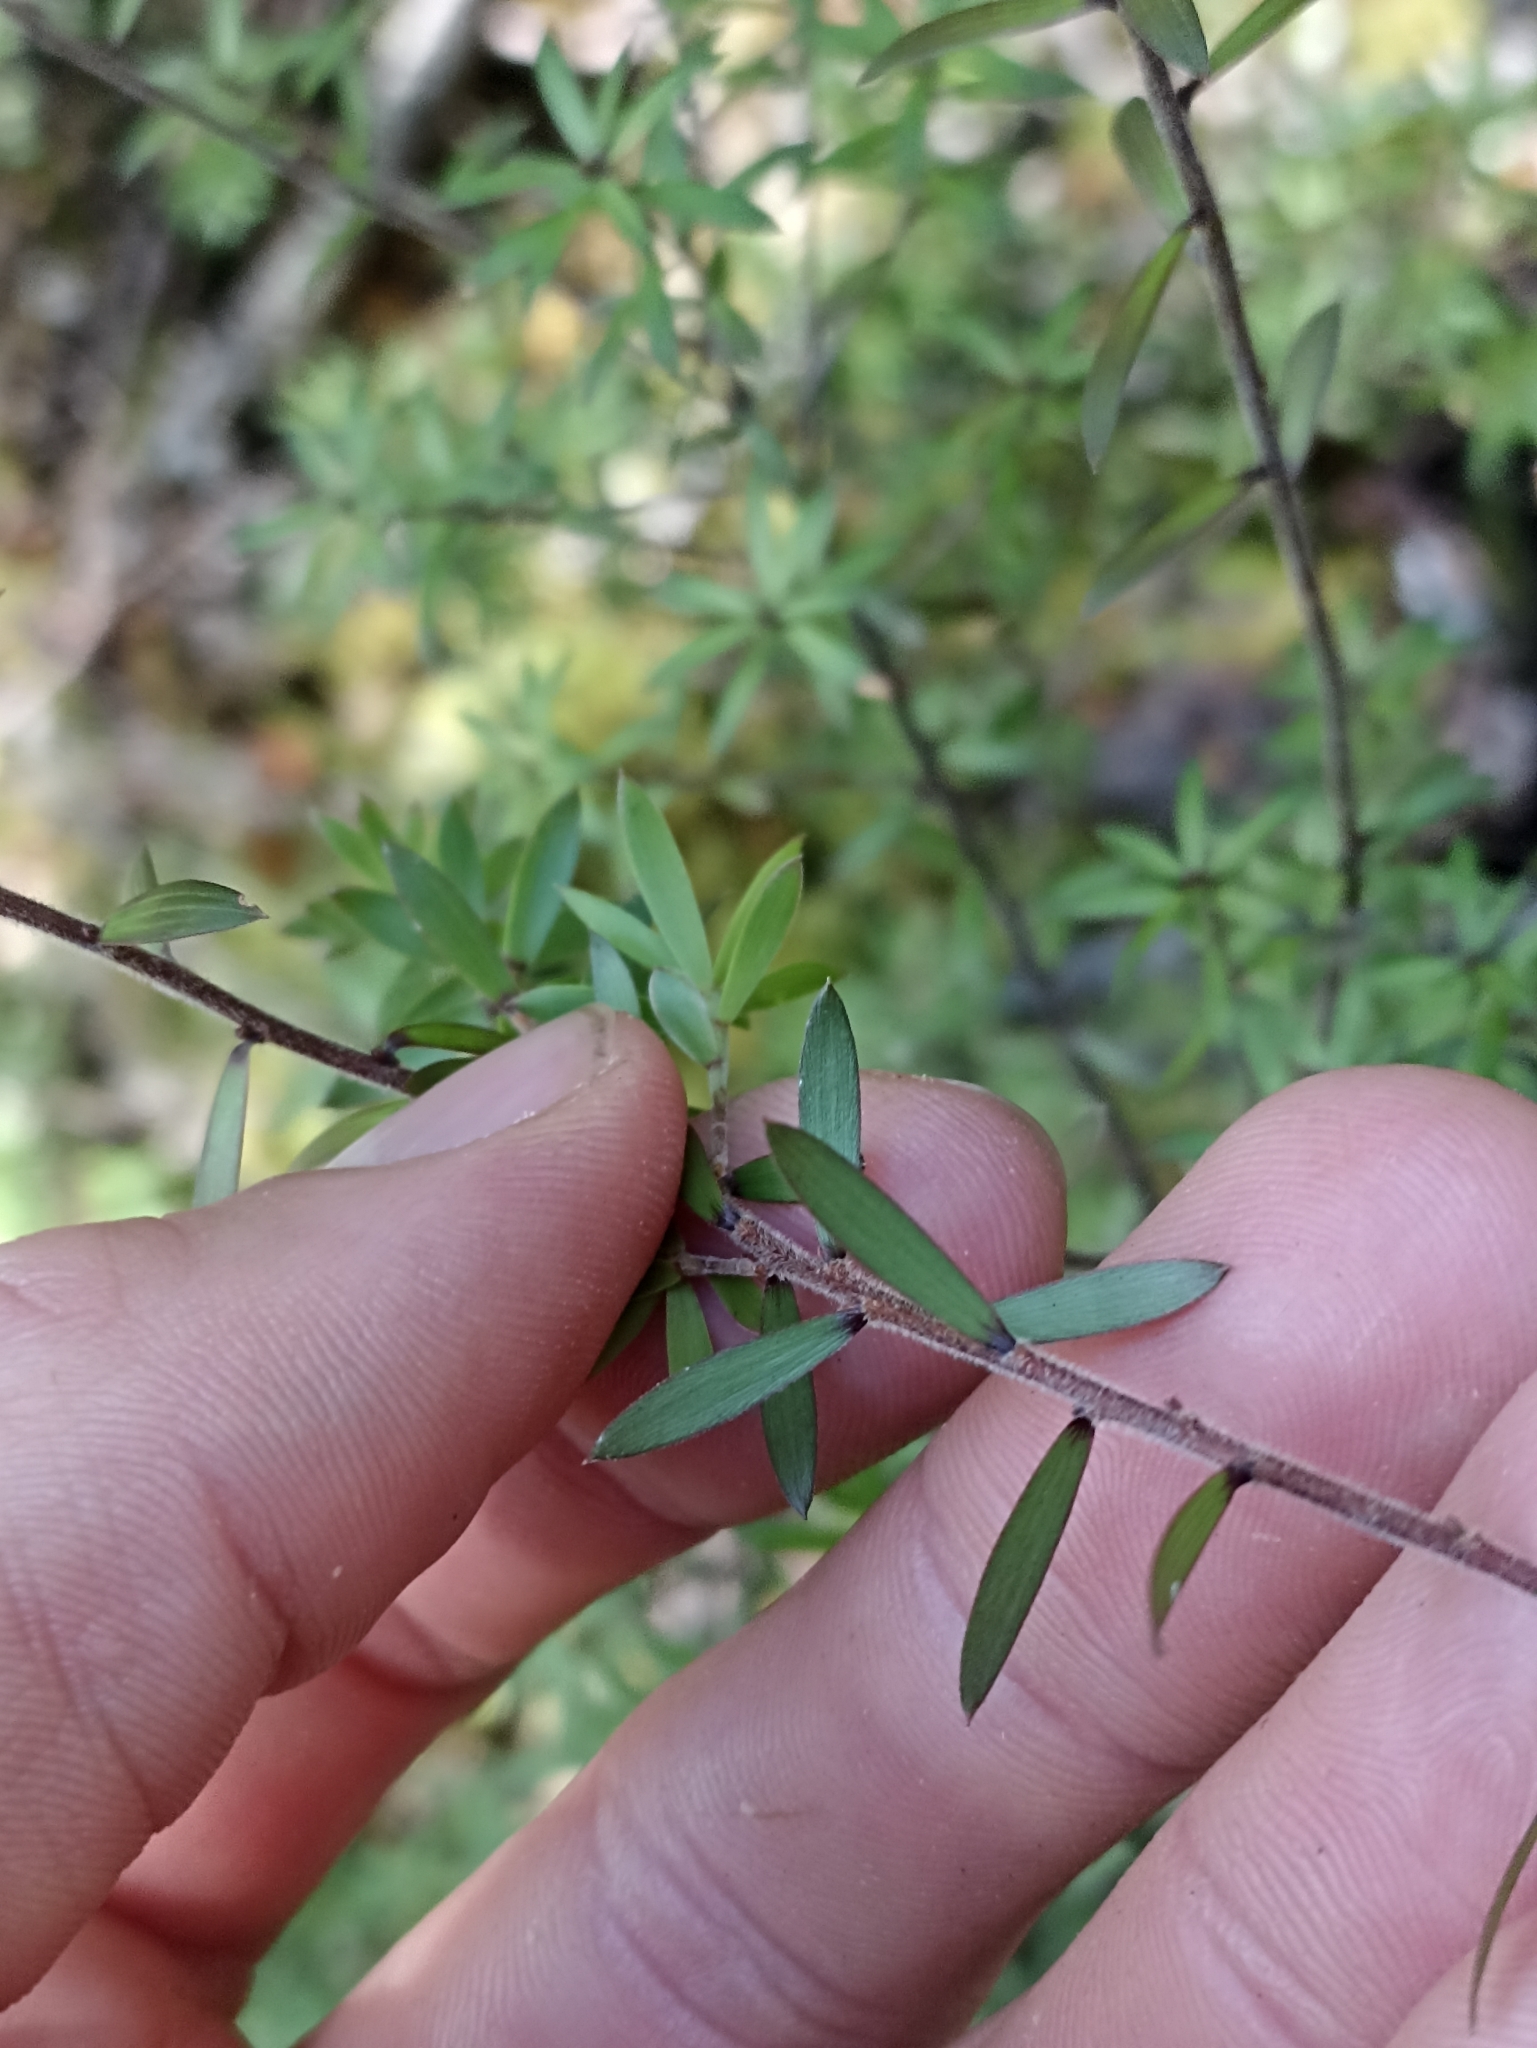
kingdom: Plantae
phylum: Tracheophyta
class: Magnoliopsida
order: Ericales
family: Ericaceae
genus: Leucopogon
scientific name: Leucopogon fasciculatus
